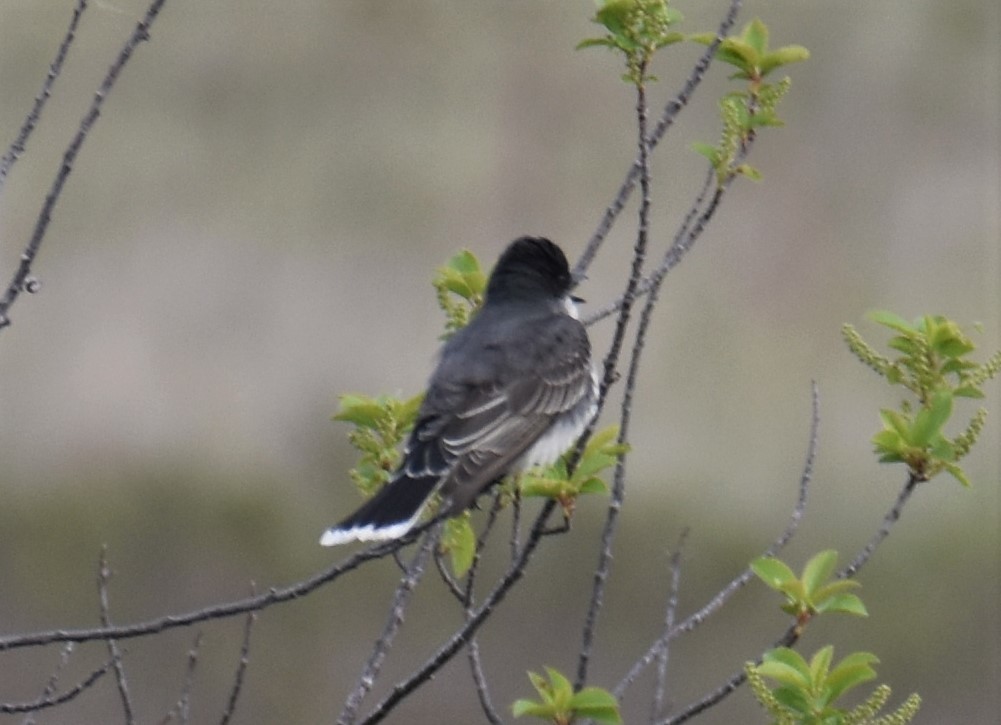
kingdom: Animalia
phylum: Chordata
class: Aves
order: Passeriformes
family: Tyrannidae
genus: Tyrannus
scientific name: Tyrannus tyrannus
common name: Eastern kingbird
